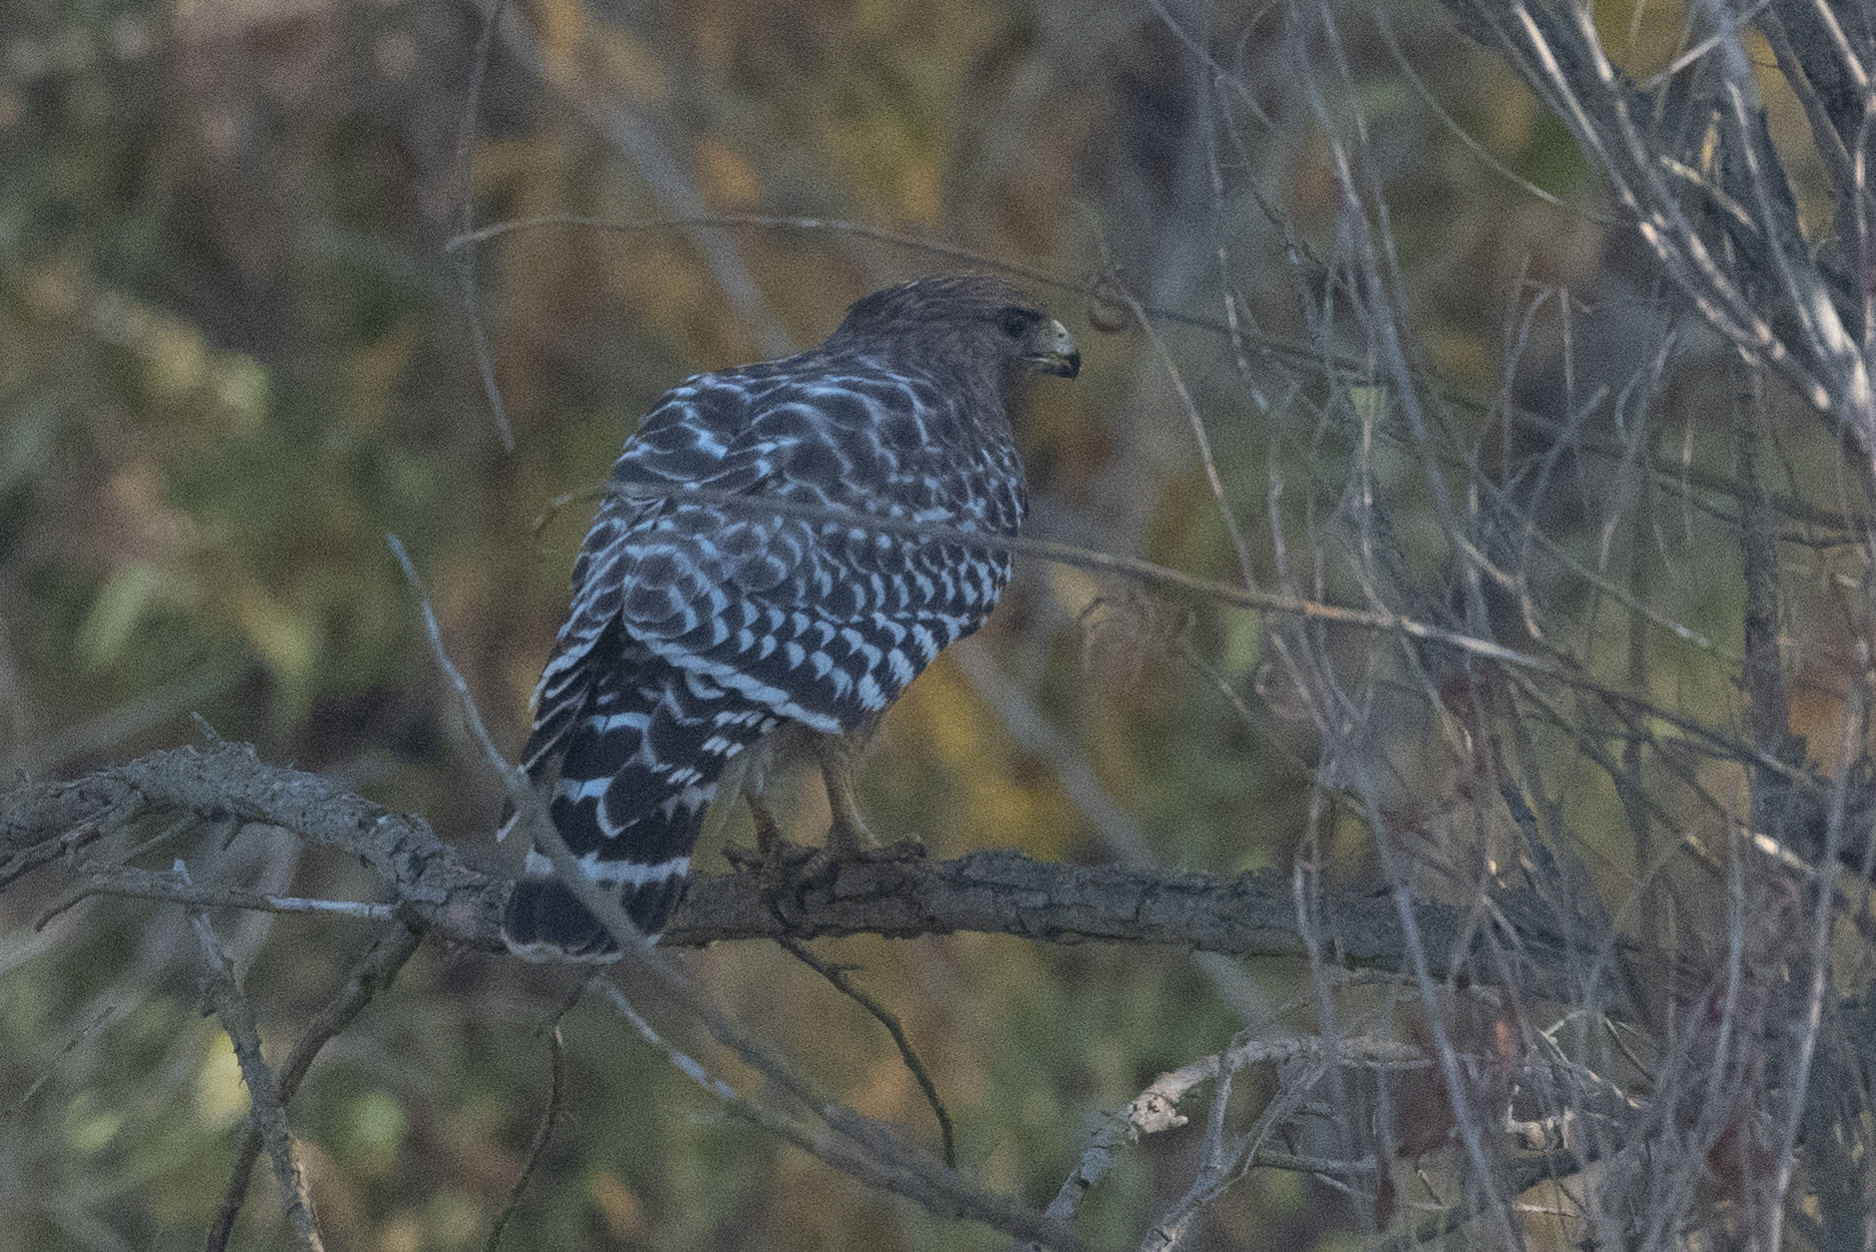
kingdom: Animalia
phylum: Chordata
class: Aves
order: Accipitriformes
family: Accipitridae
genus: Buteo
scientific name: Buteo lineatus
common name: Red-shouldered hawk
